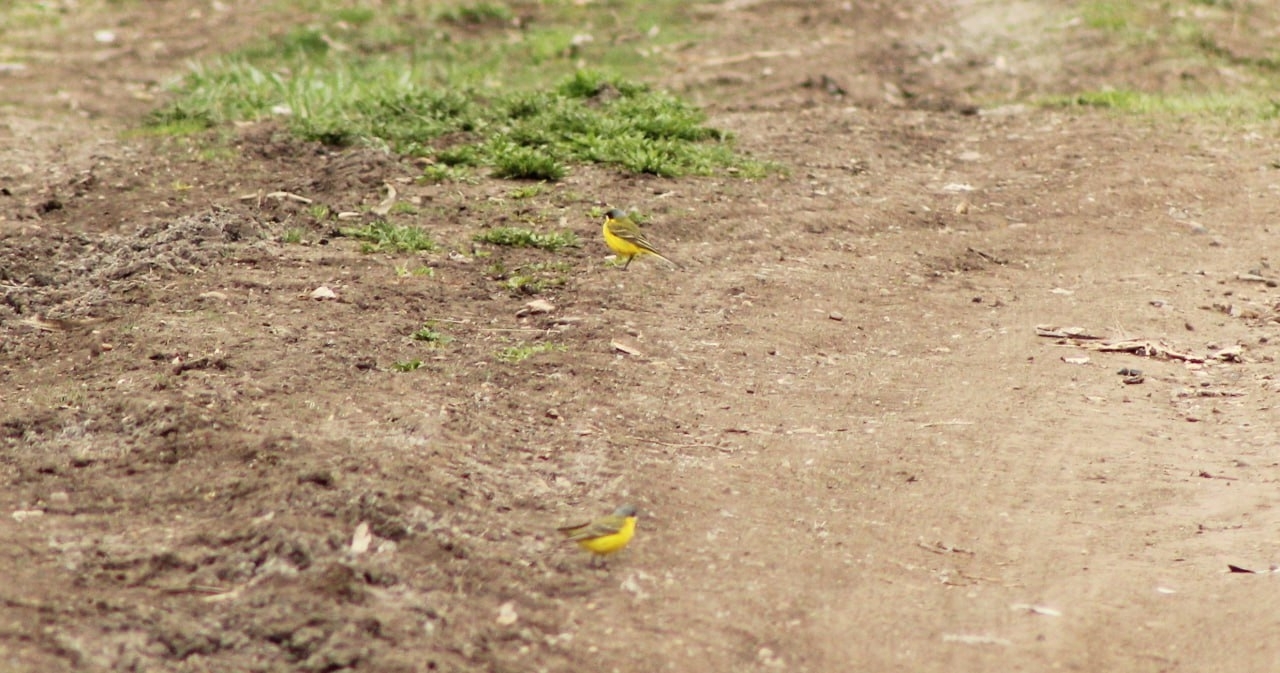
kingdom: Animalia
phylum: Chordata
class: Aves
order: Passeriformes
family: Motacillidae
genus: Motacilla
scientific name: Motacilla flava
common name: Western yellow wagtail
